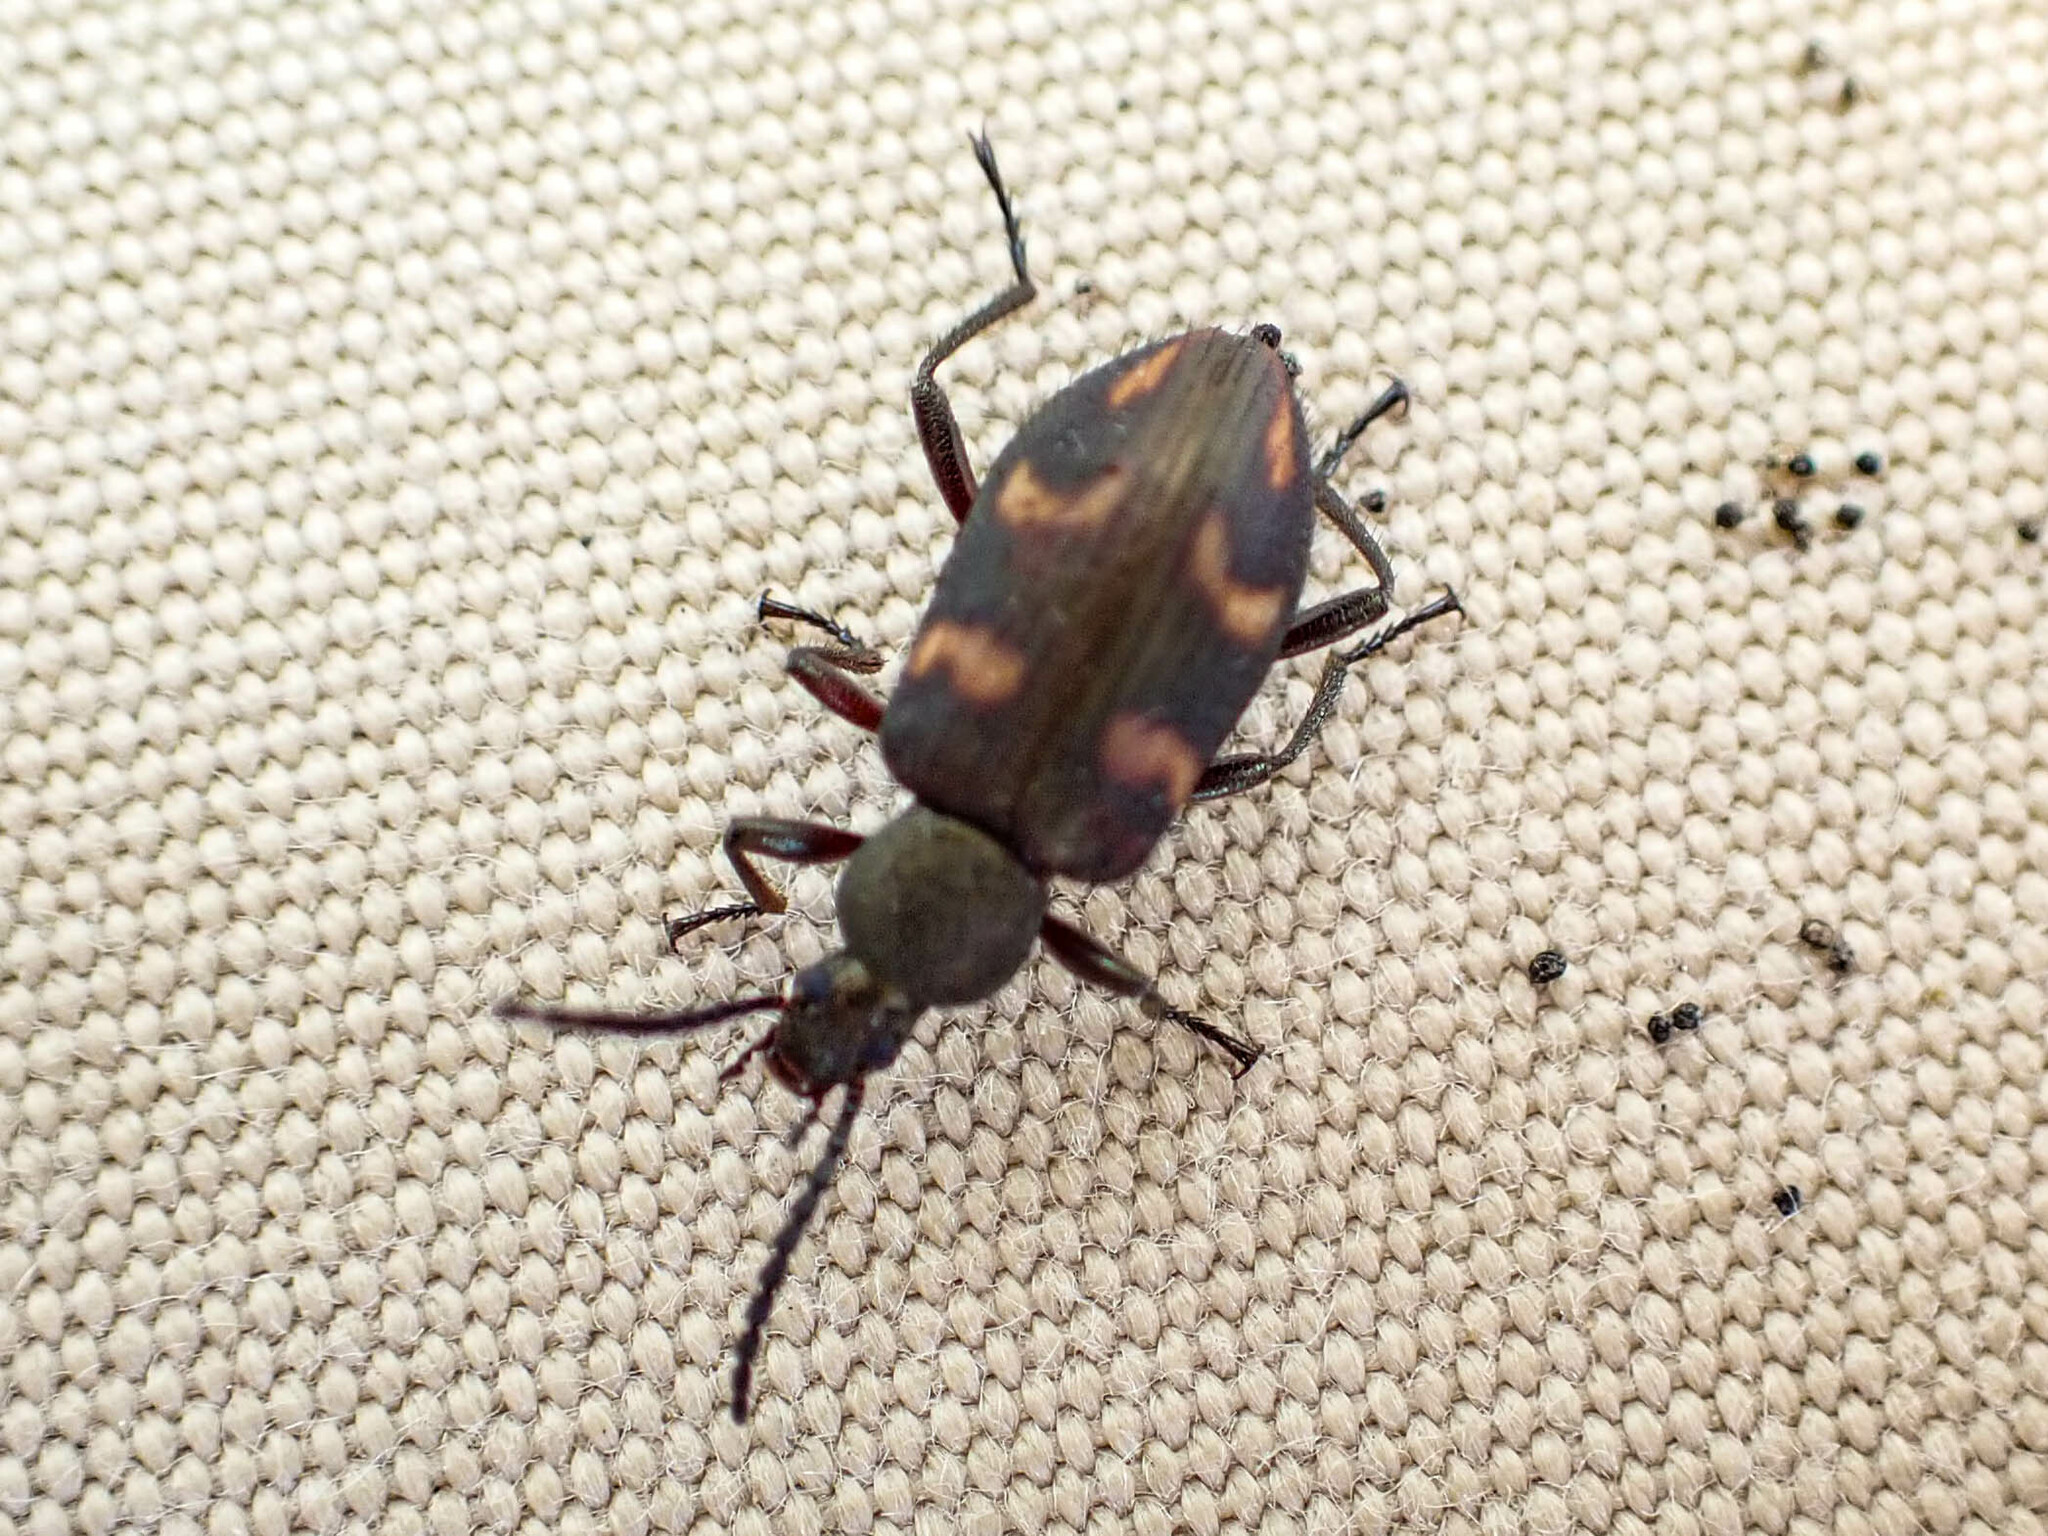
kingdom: Animalia
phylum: Arthropoda
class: Insecta
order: Coleoptera
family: Tenebrionidae
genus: Lystronychus
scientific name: Lystronychus
